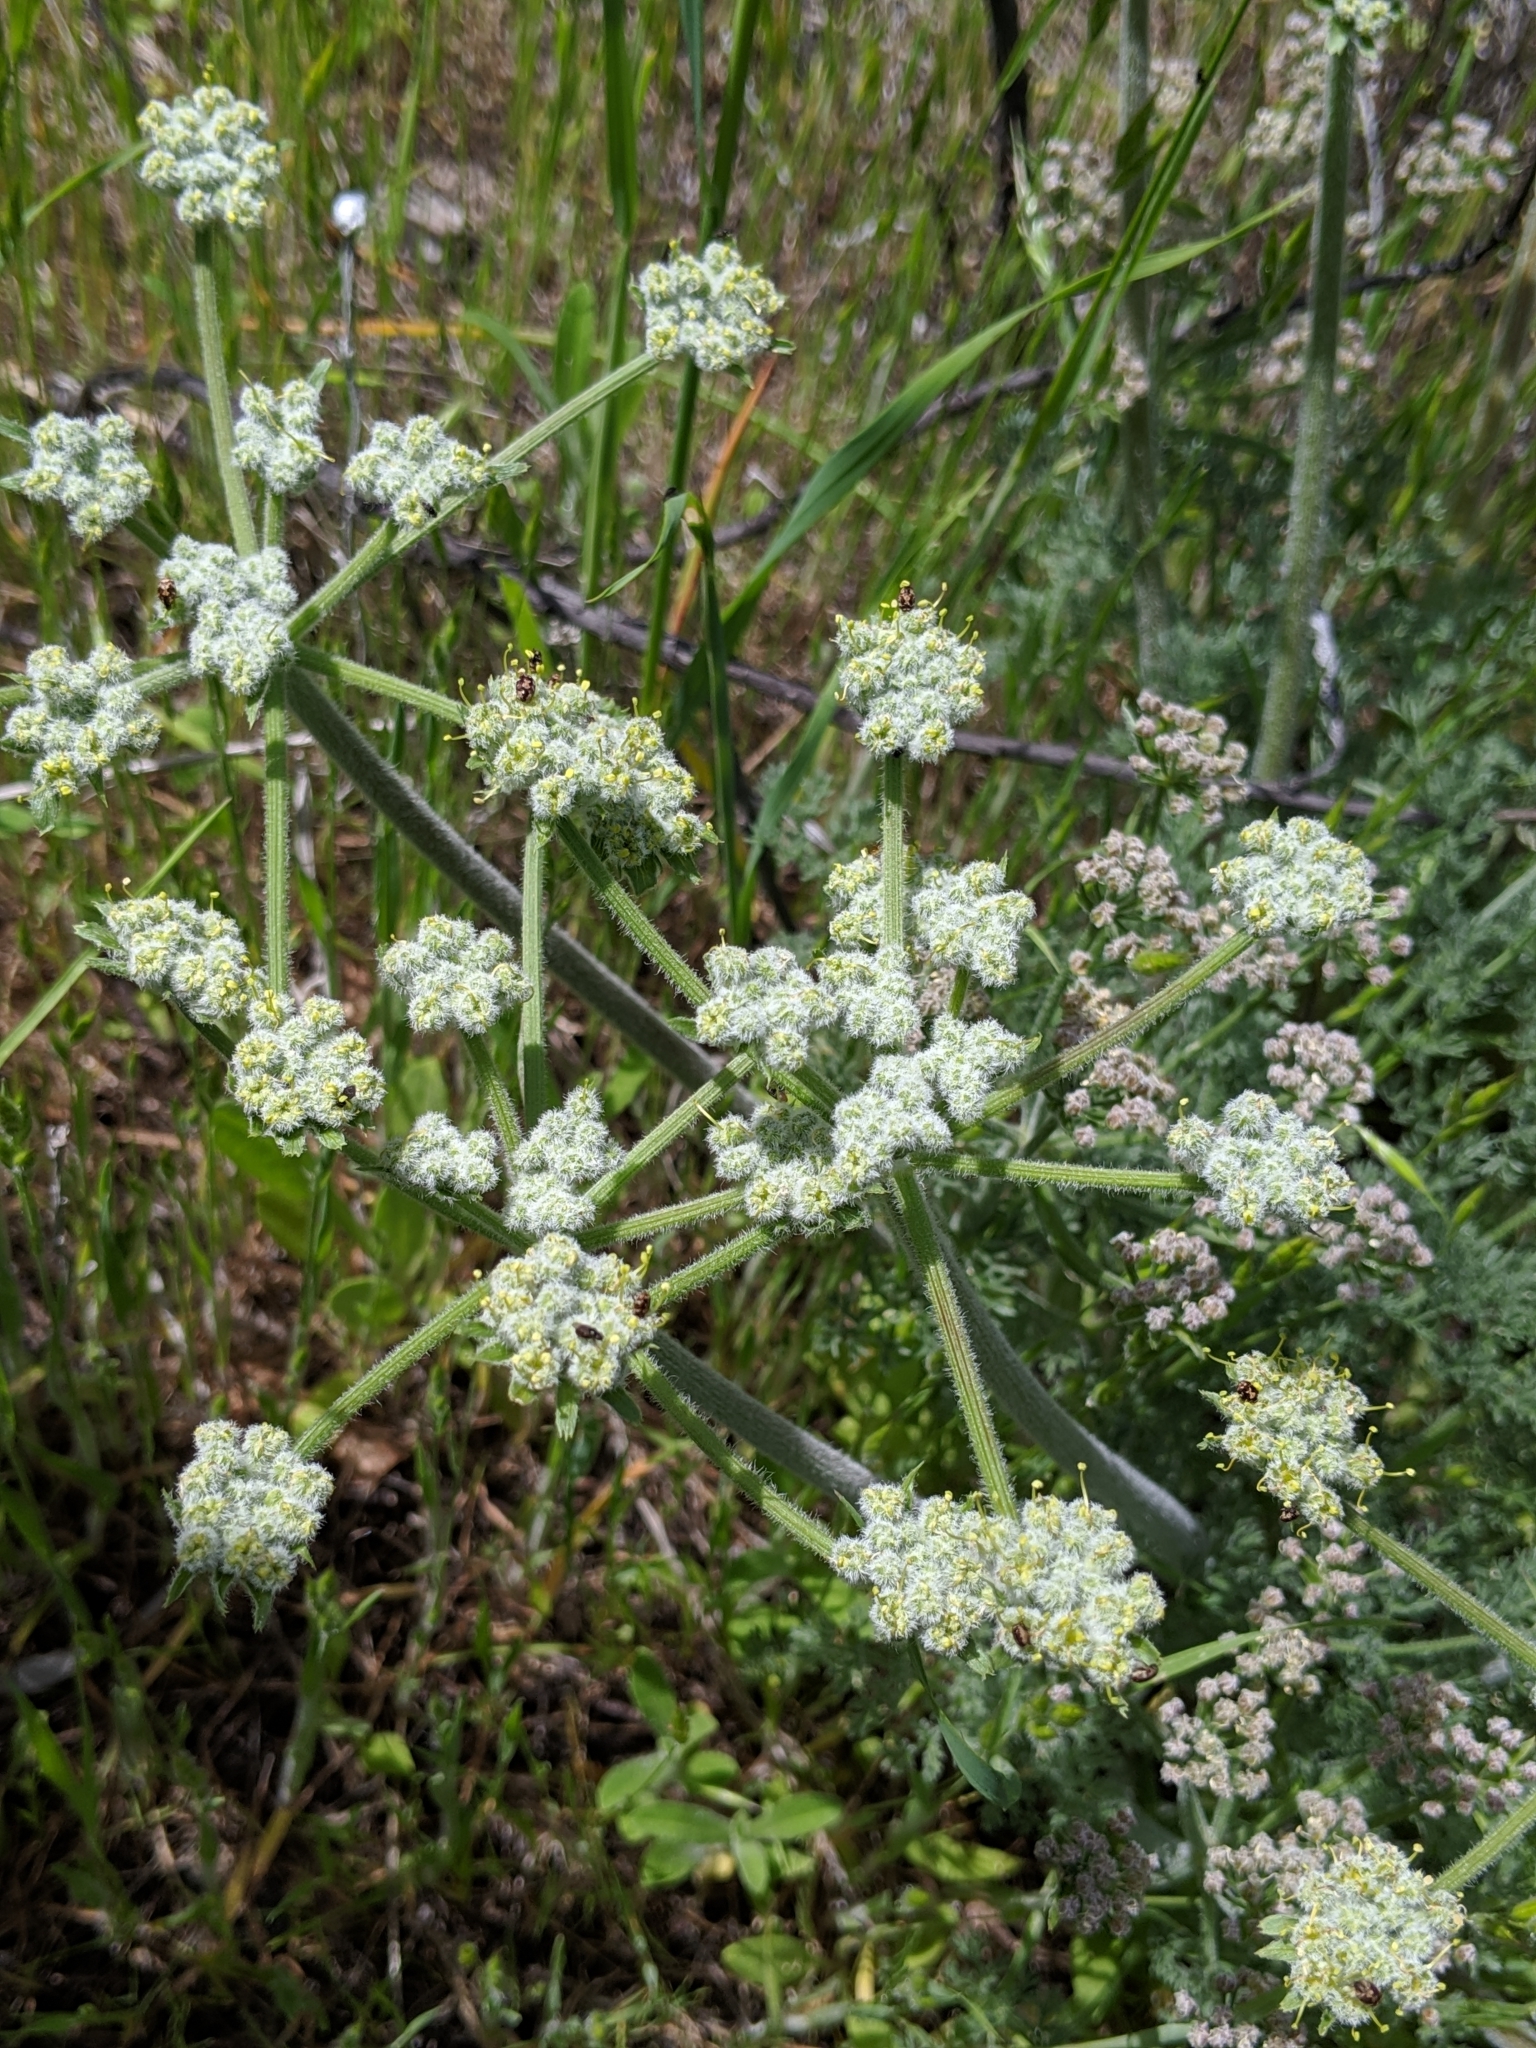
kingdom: Plantae
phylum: Tracheophyta
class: Magnoliopsida
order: Apiales
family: Apiaceae
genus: Lomatium
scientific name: Lomatium dasycarpum
